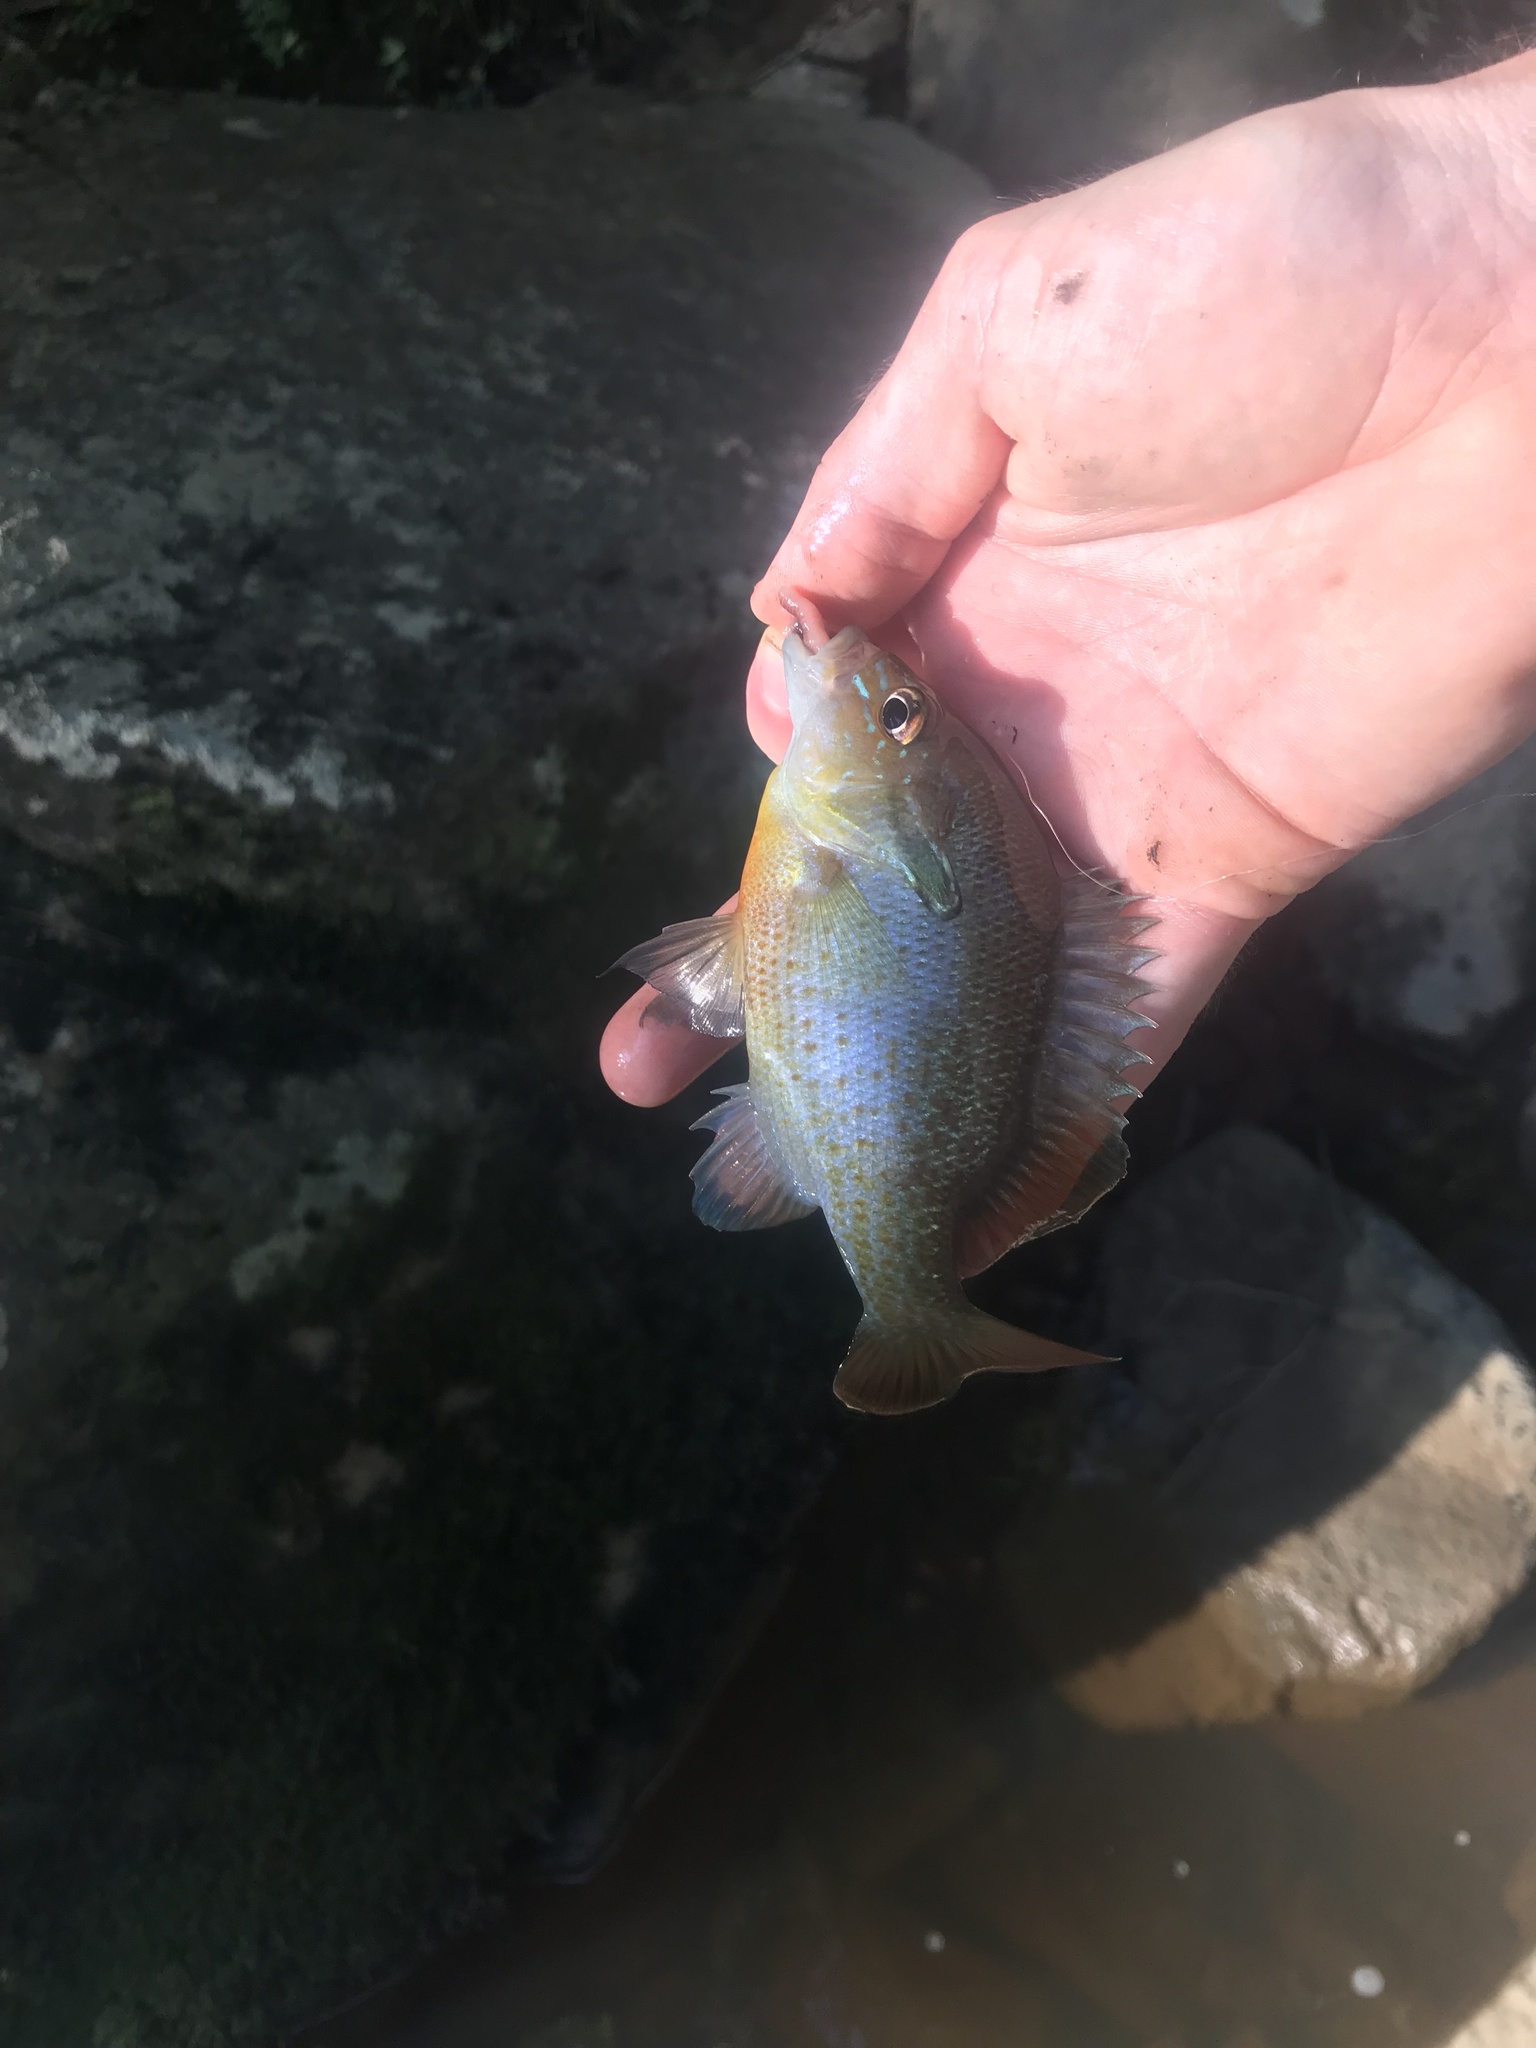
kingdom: Animalia
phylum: Chordata
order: Perciformes
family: Centrarchidae
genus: Lepomis
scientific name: Lepomis auritus
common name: Redbreast sunfish
